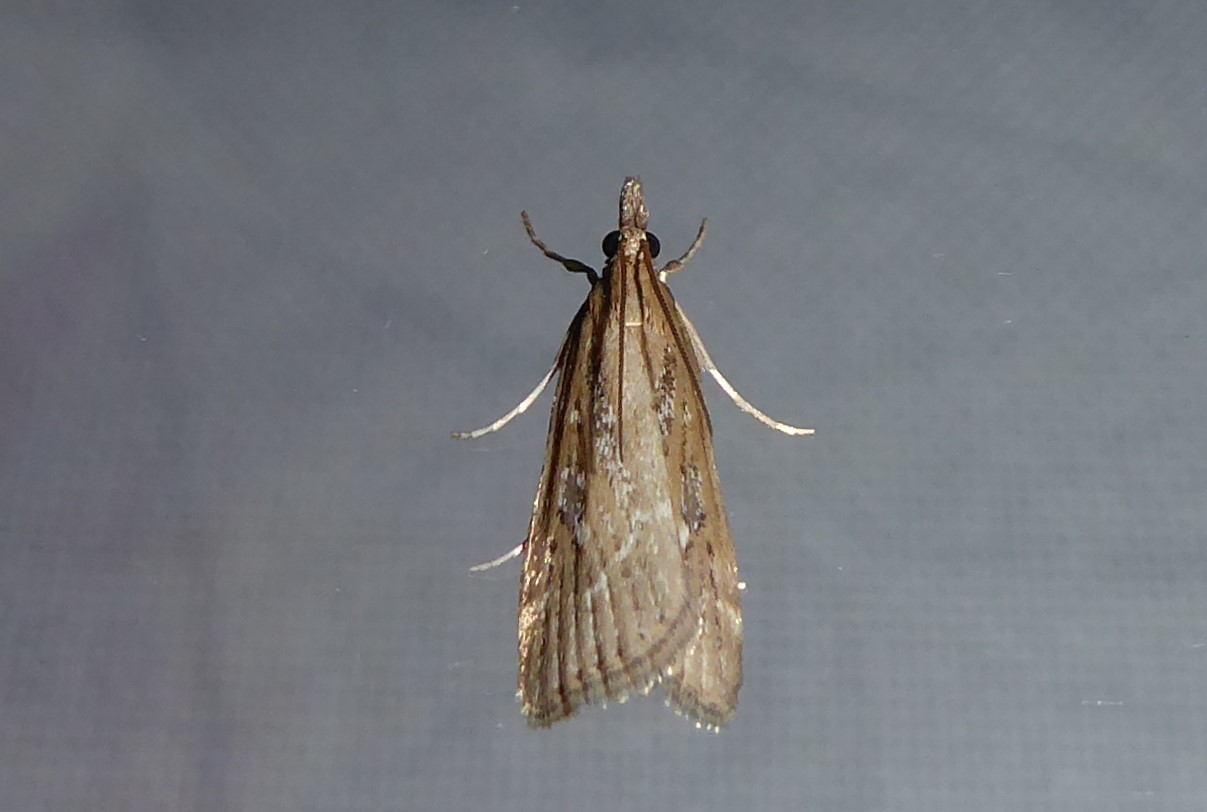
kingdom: Animalia
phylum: Arthropoda
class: Insecta
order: Lepidoptera
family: Crambidae
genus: Eudonia
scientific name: Eudonia octophora
